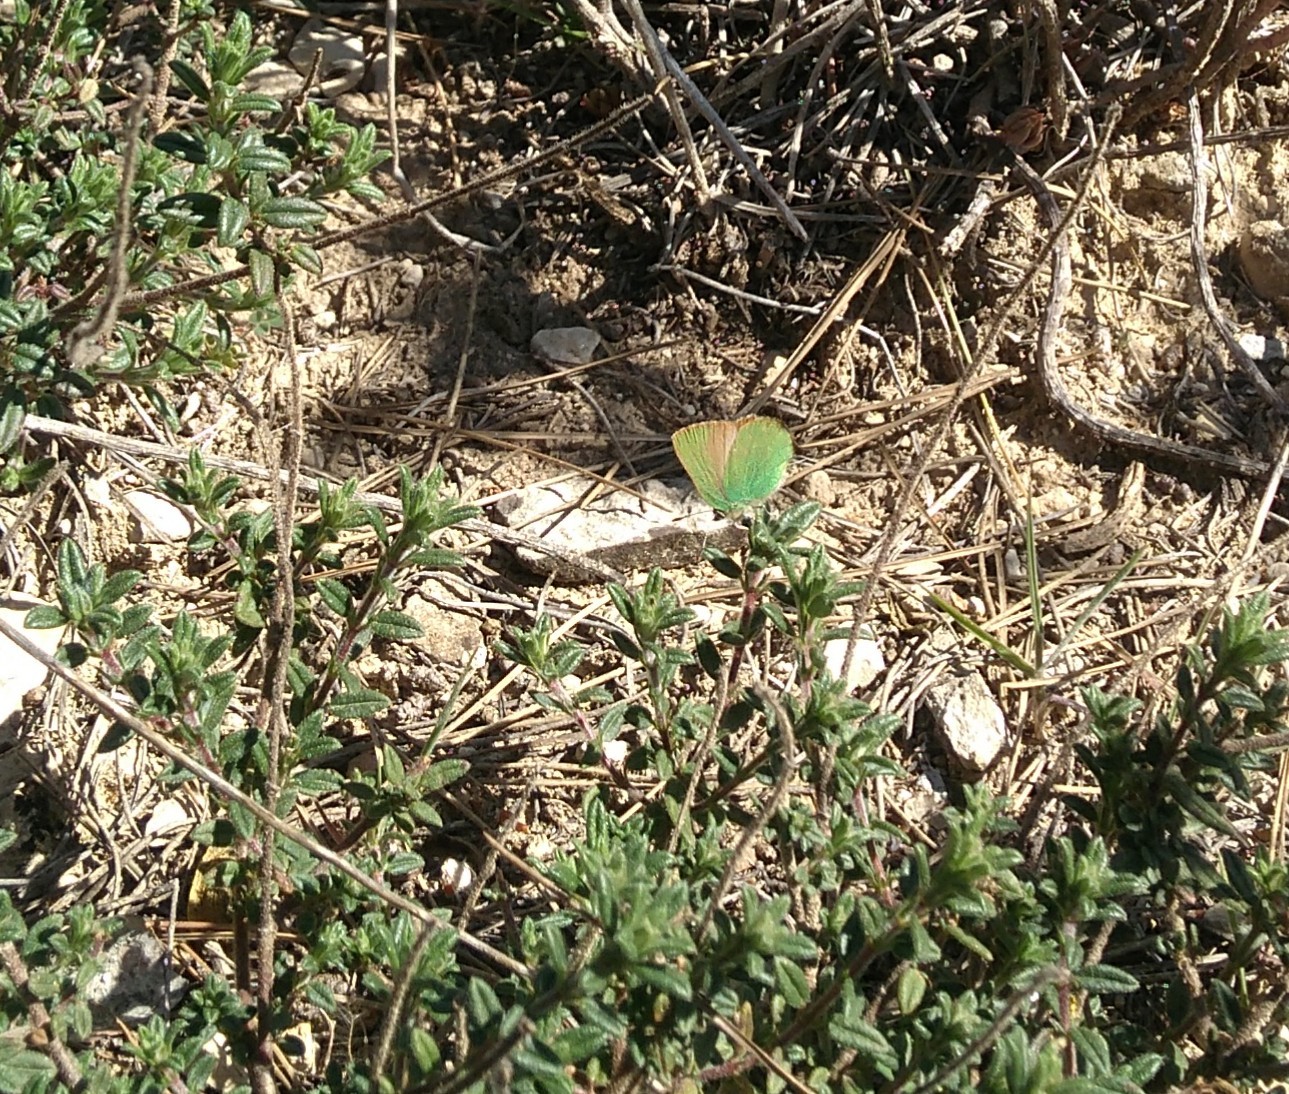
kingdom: Animalia
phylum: Arthropoda
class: Insecta
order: Lepidoptera
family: Lycaenidae
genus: Callophrys
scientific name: Callophrys rubi
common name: Green hairstreak
